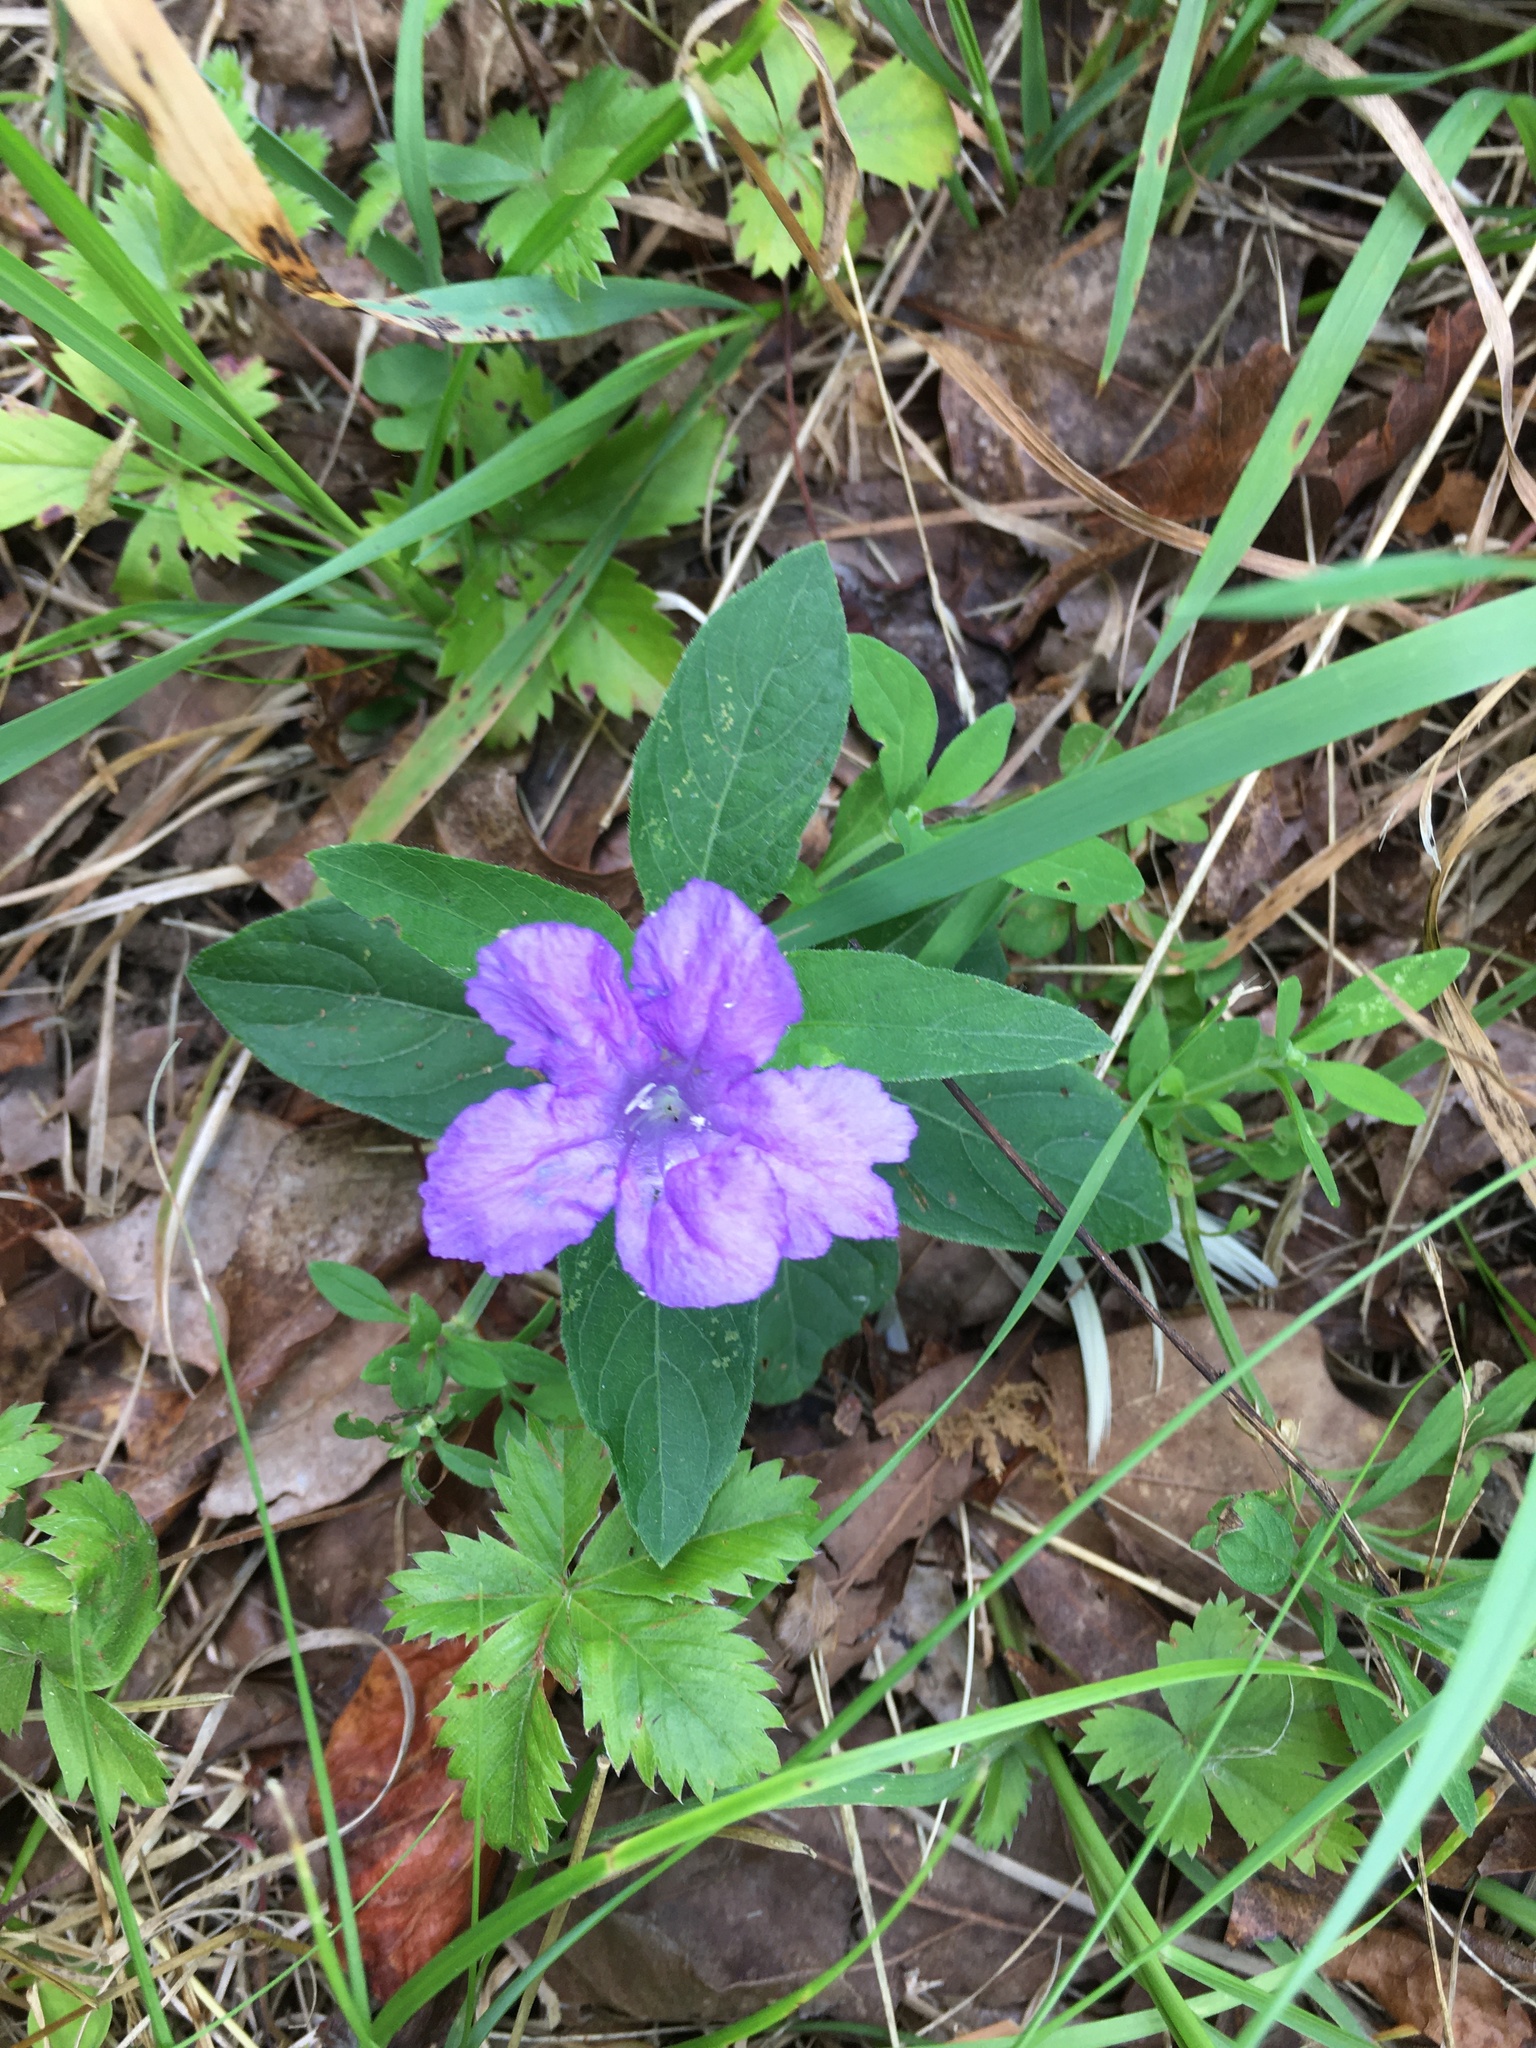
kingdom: Plantae
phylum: Tracheophyta
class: Magnoliopsida
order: Lamiales
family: Acanthaceae
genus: Ruellia
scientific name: Ruellia caroliniensis
